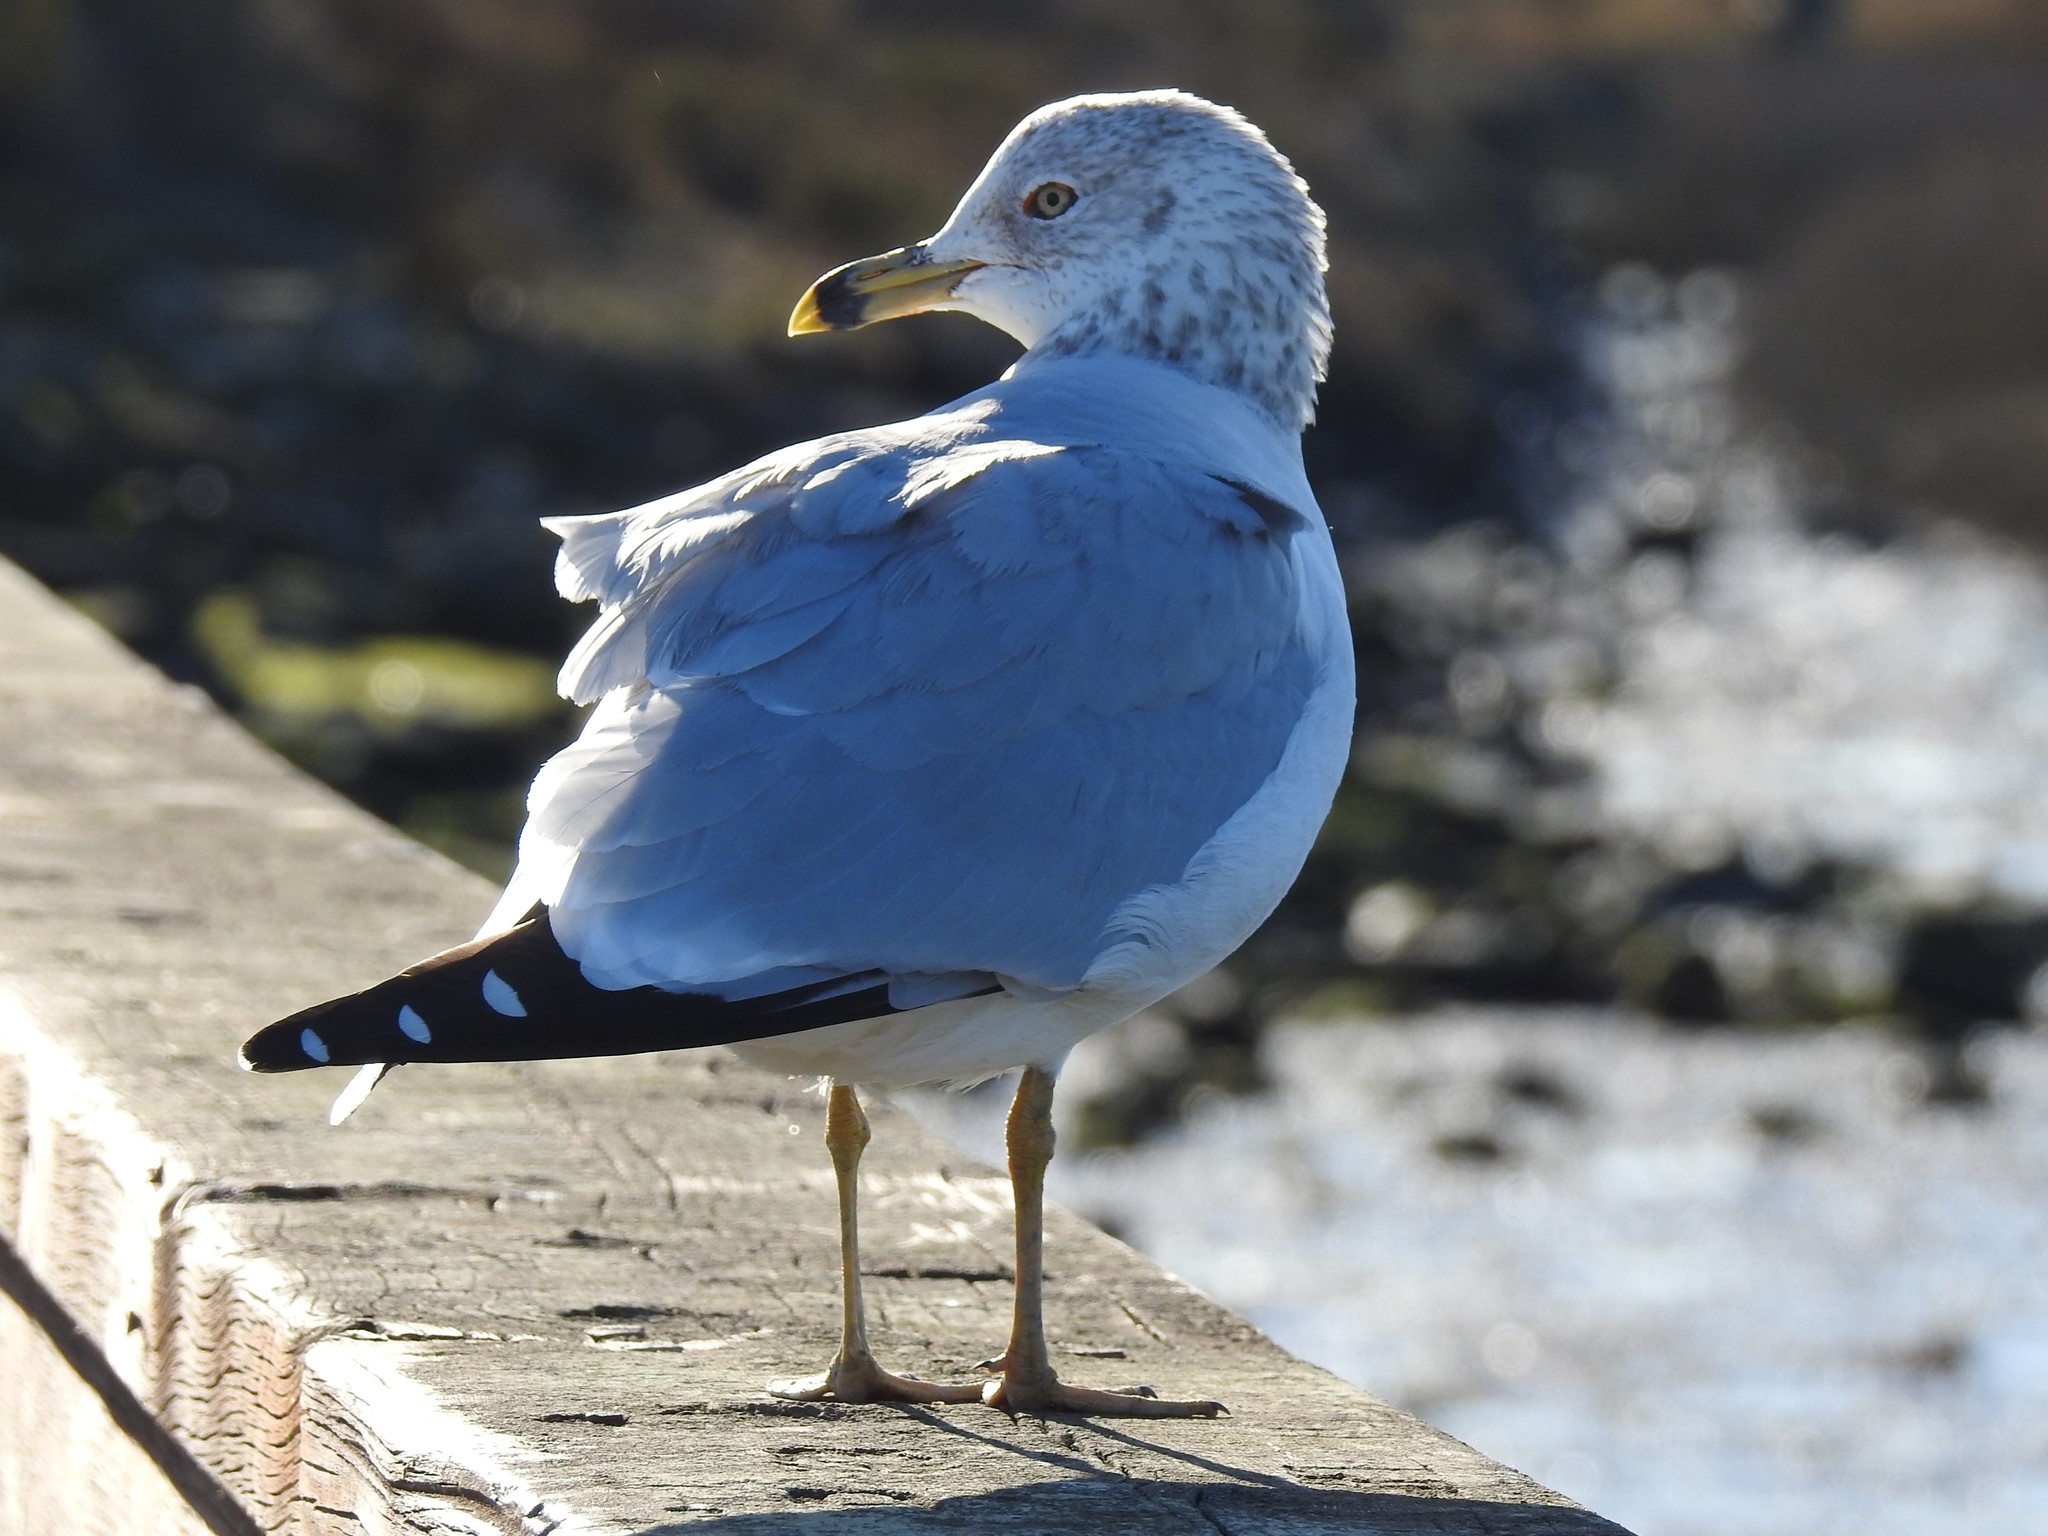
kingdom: Animalia
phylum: Chordata
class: Aves
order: Charadriiformes
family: Laridae
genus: Larus
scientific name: Larus delawarensis
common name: Ring-billed gull
